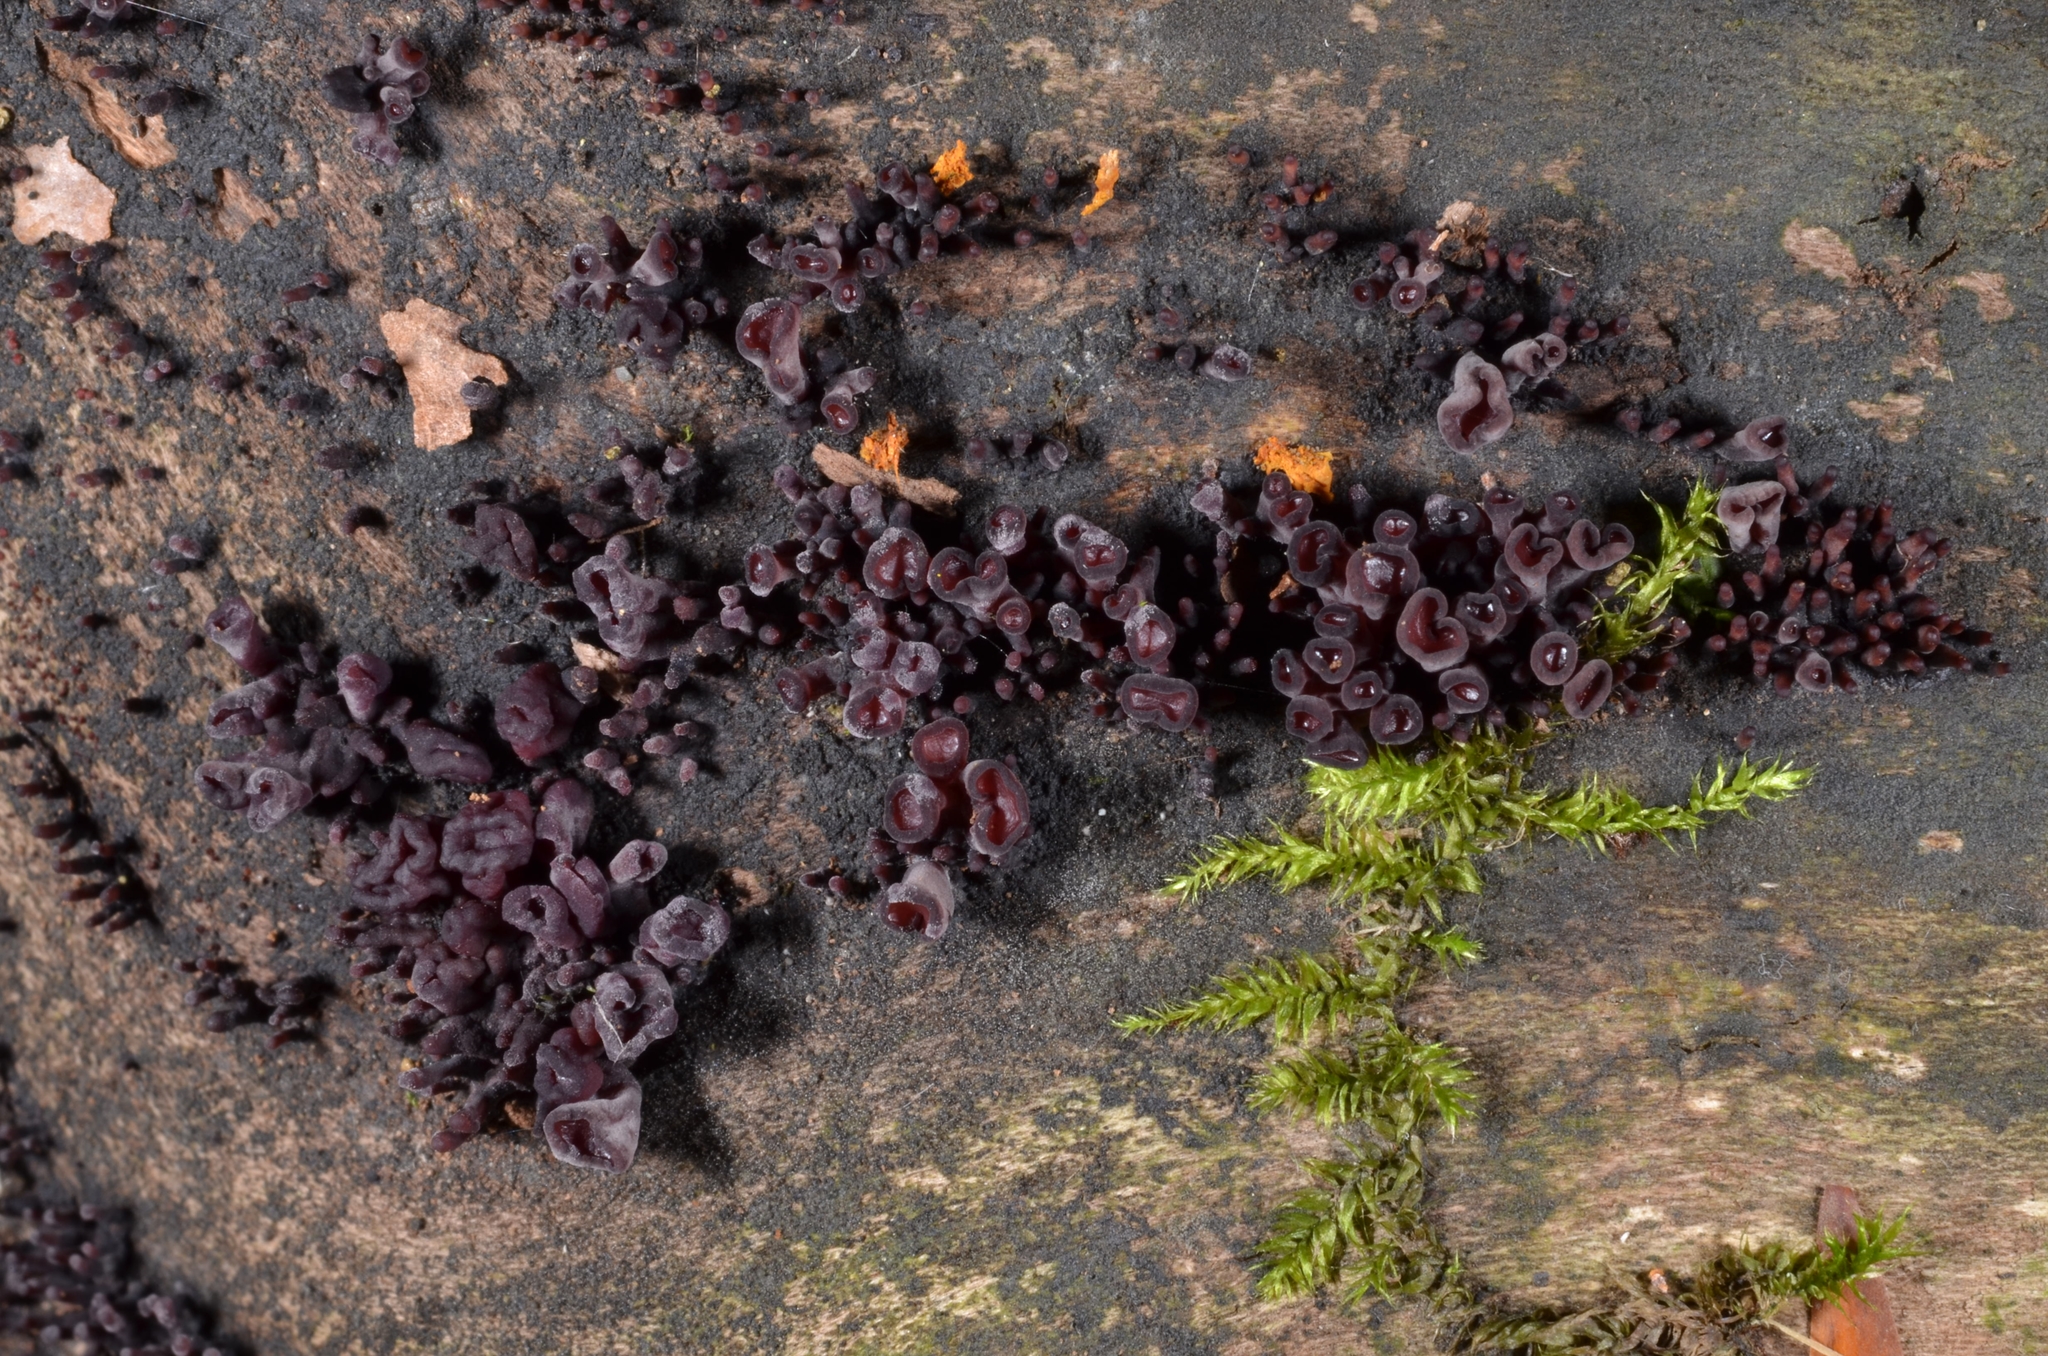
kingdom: Fungi
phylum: Ascomycota
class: Leotiomycetes
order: Helotiales
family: Gelatinodiscaceae
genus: Ascocoryne
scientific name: Ascocoryne sarcoides
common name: Purple jellydisc
